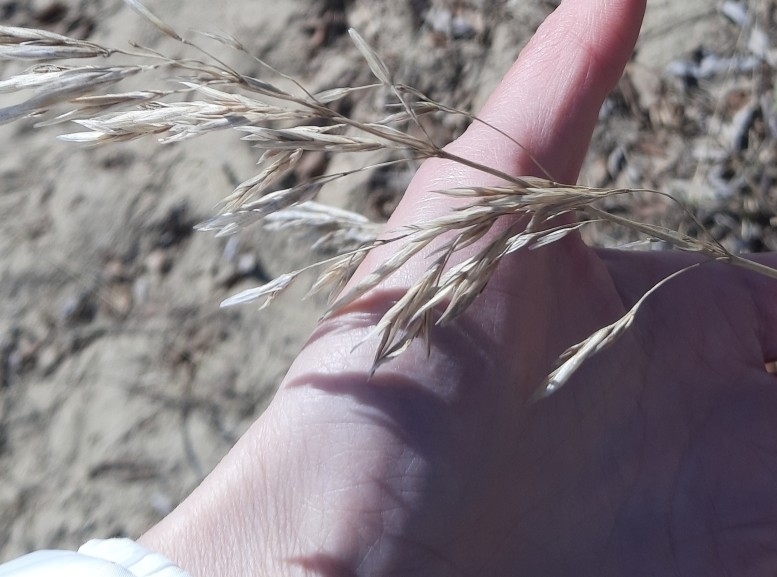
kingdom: Plantae
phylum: Tracheophyta
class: Liliopsida
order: Poales
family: Poaceae
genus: Bromus
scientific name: Bromus inermis
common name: Smooth brome
